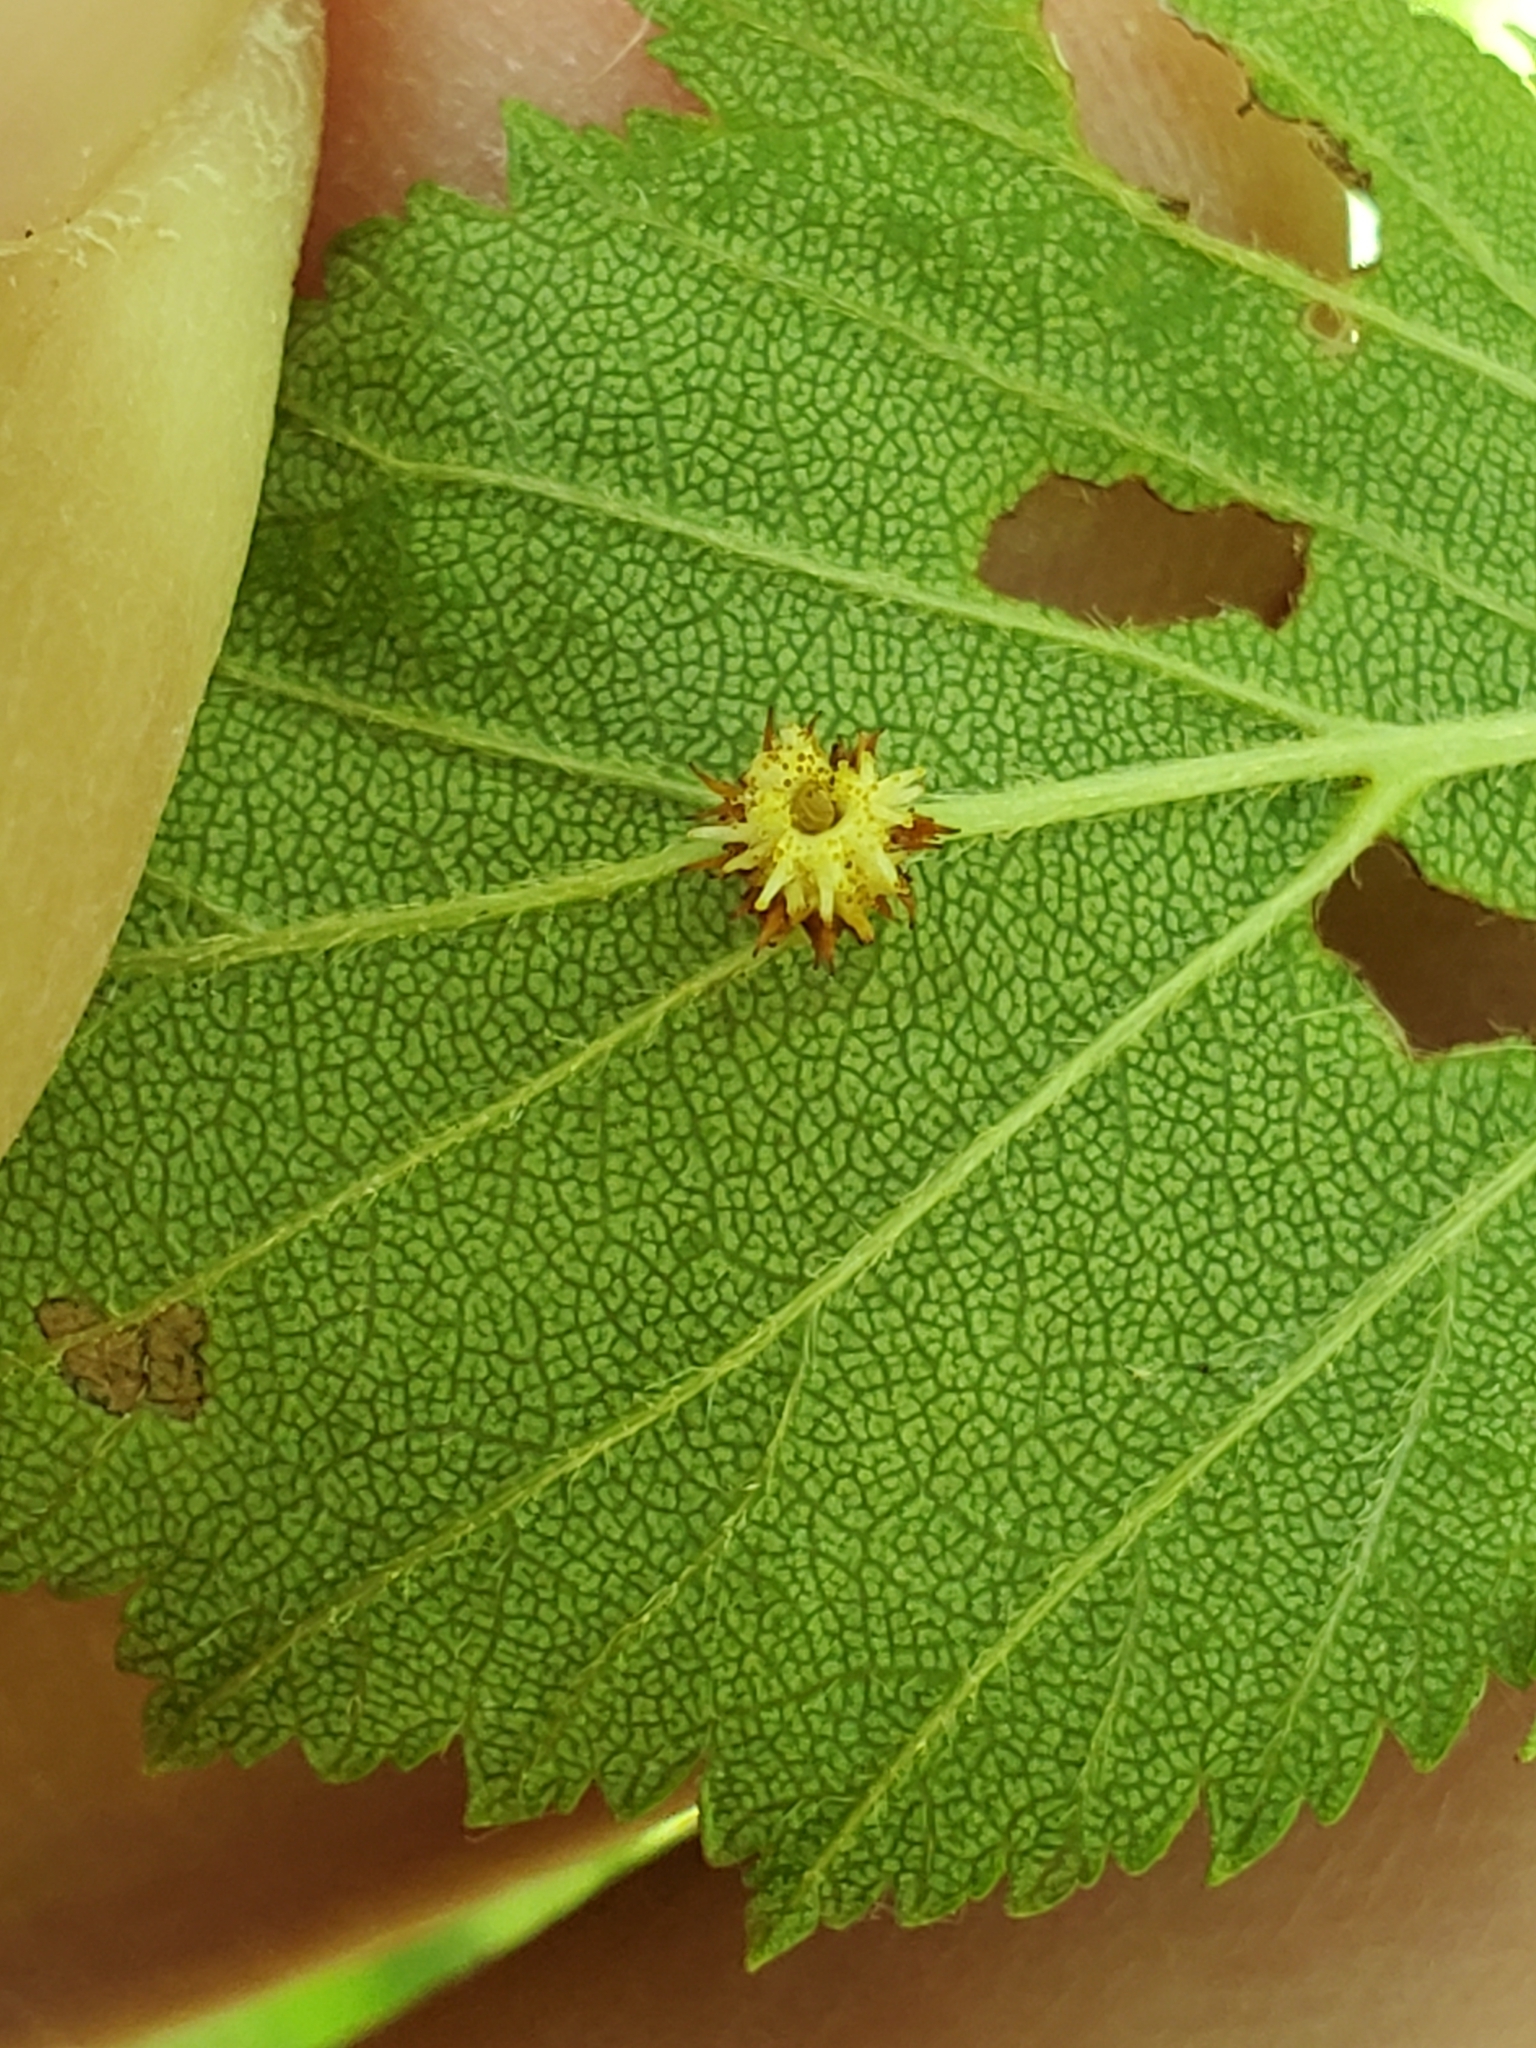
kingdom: Animalia
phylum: Arthropoda
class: Insecta
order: Diptera
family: Cecidomyiidae
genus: Blaesodiplosis
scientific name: Blaesodiplosis crataegibedeguar
